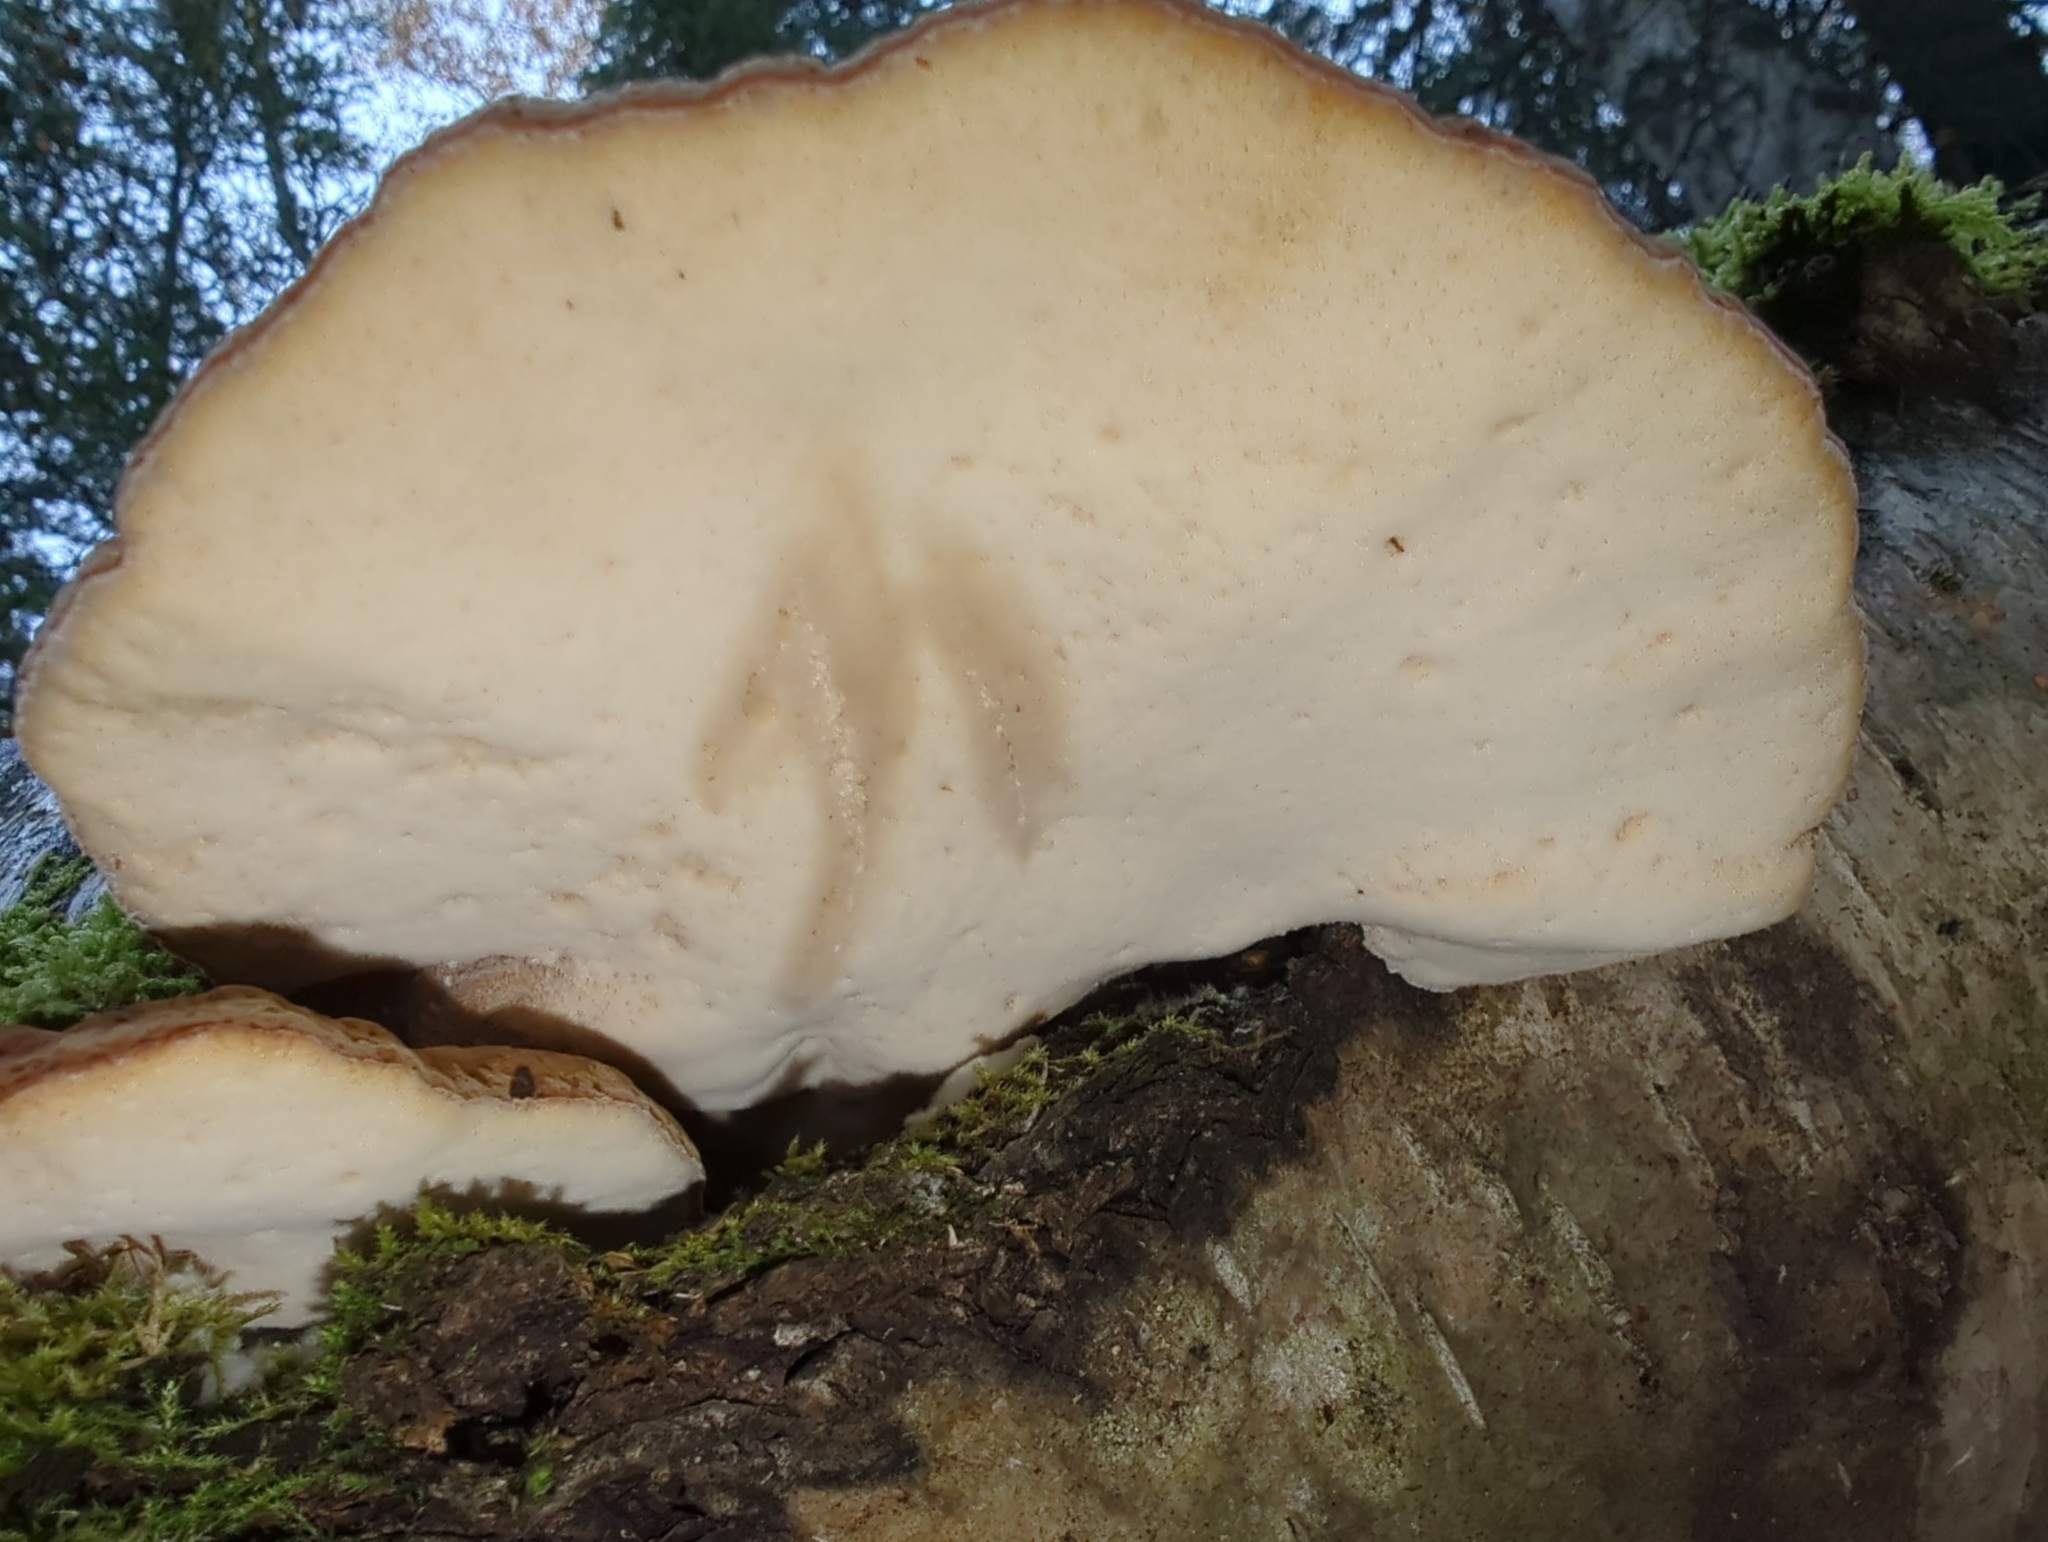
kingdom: Fungi
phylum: Basidiomycota
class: Agaricomycetes
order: Polyporales
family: Ischnodermataceae
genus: Ischnoderma
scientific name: Ischnoderma resinosum
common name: Resinous polypore
